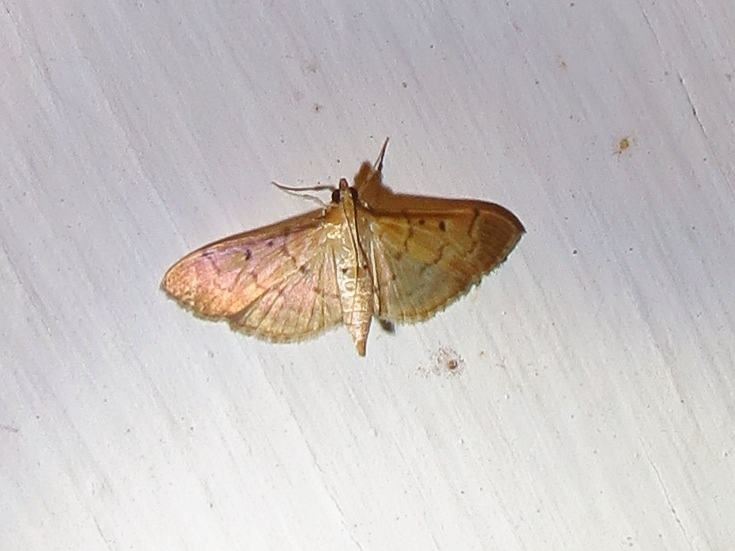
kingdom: Animalia
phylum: Arthropoda
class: Insecta
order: Lepidoptera
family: Crambidae
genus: Herpetogramma
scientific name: Herpetogramma bipunctalis
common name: Southern beet webworm
